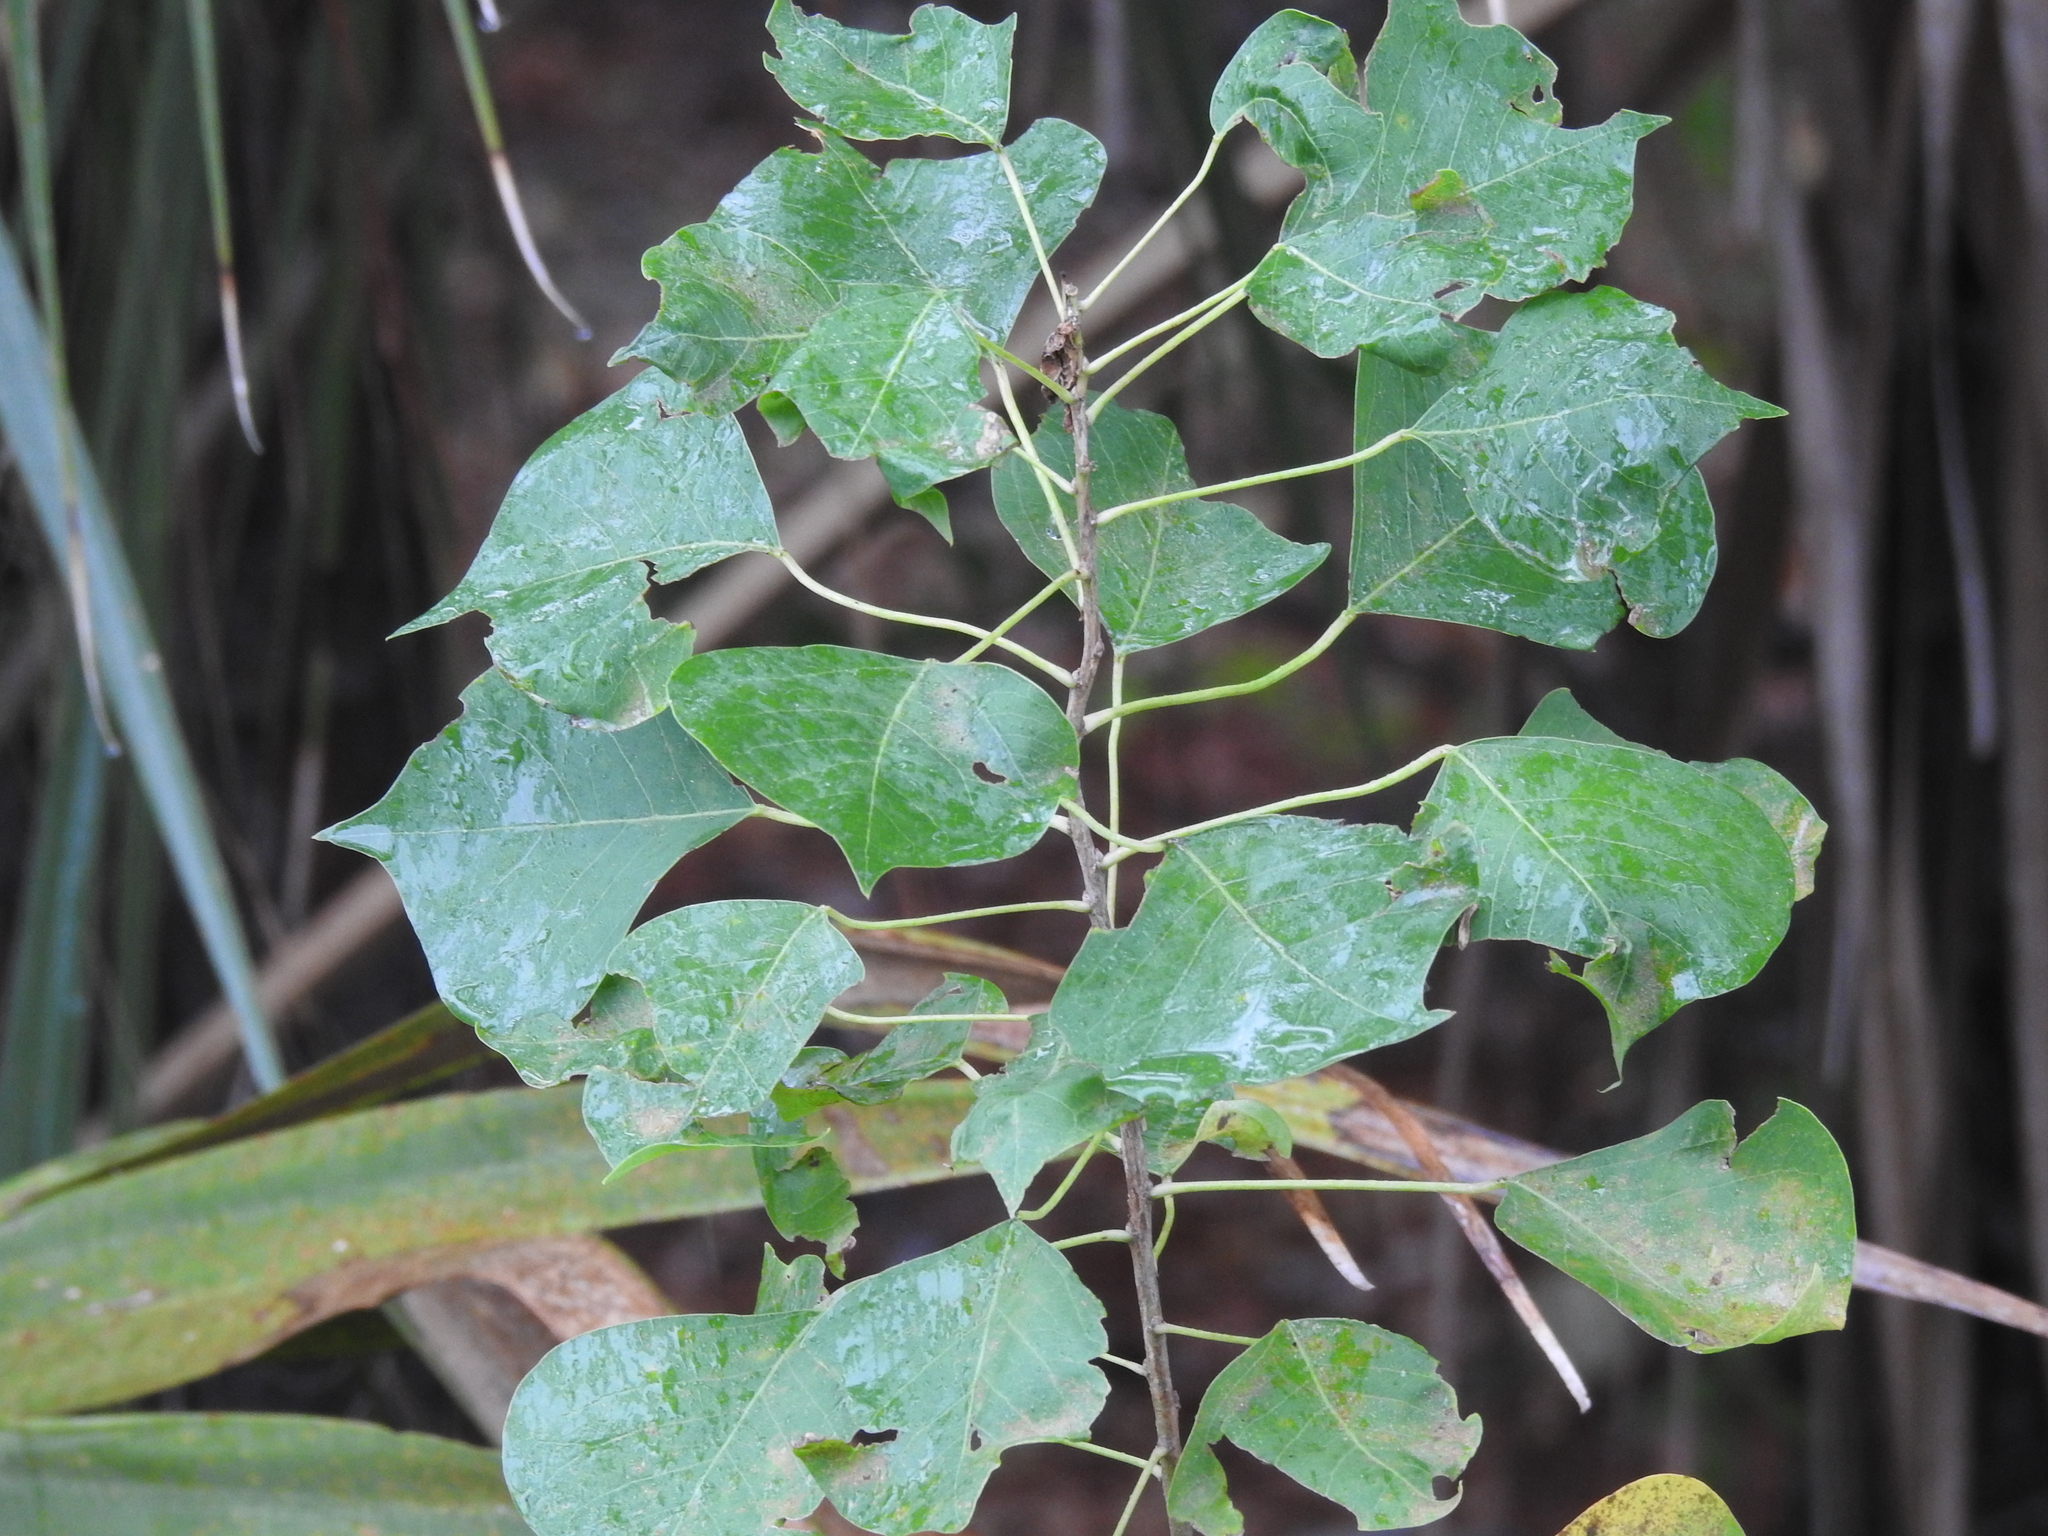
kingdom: Plantae
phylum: Tracheophyta
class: Magnoliopsida
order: Malpighiales
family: Euphorbiaceae
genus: Triadica
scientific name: Triadica sebifera
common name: Chinese tallow
